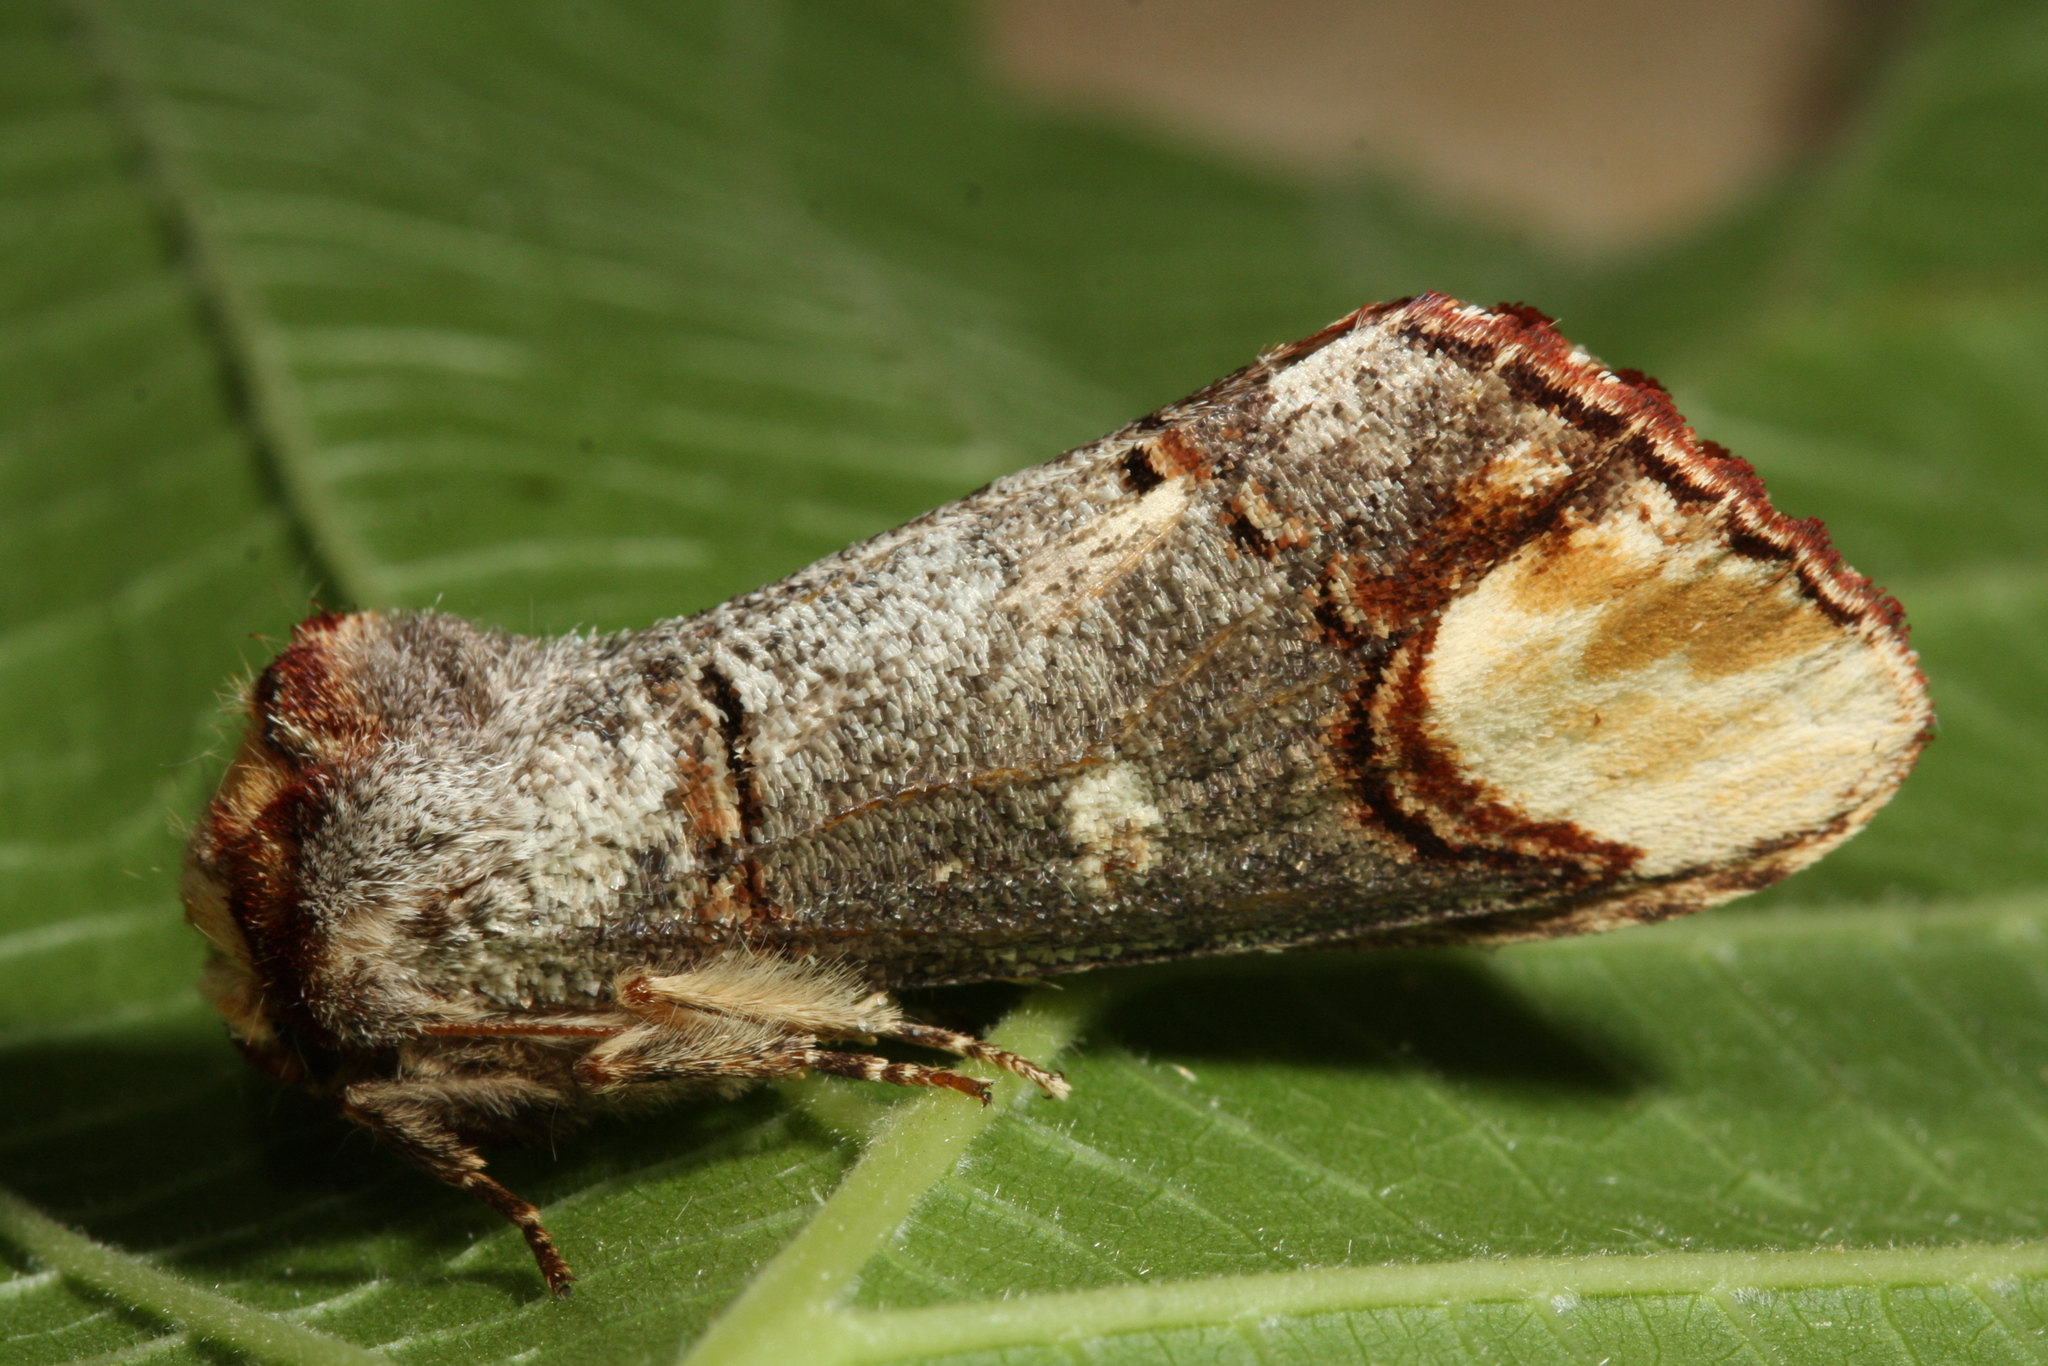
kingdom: Animalia
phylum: Arthropoda
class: Insecta
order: Lepidoptera
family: Notodontidae
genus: Phalera
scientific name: Phalera bucephala
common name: Buff-tip
